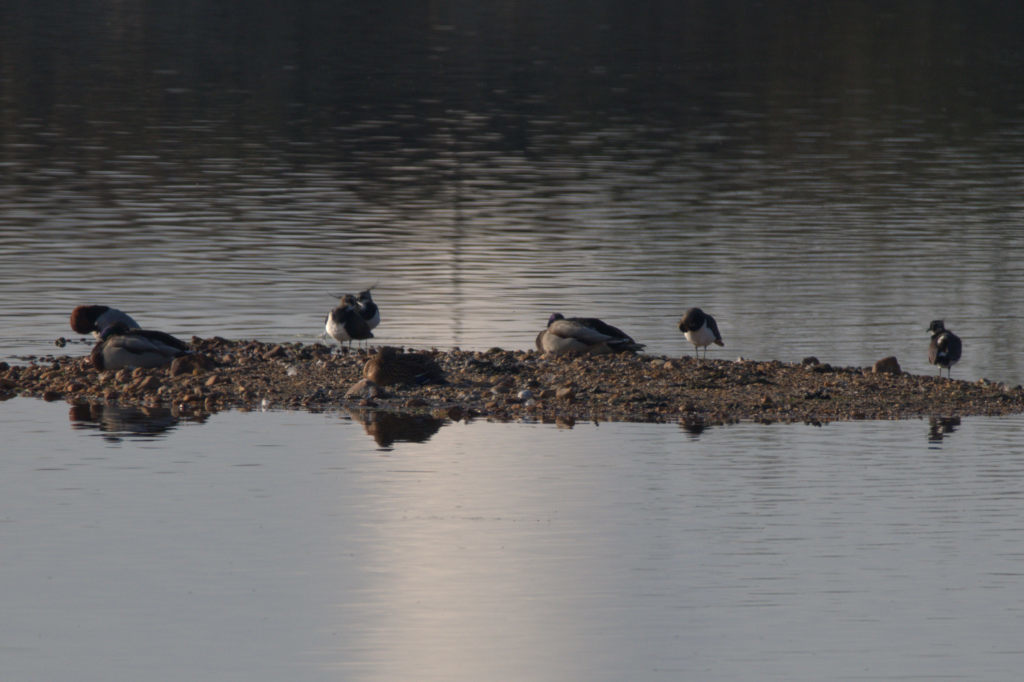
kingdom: Animalia
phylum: Chordata
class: Aves
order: Charadriiformes
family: Charadriidae
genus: Vanellus
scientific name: Vanellus vanellus
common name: Northern lapwing
